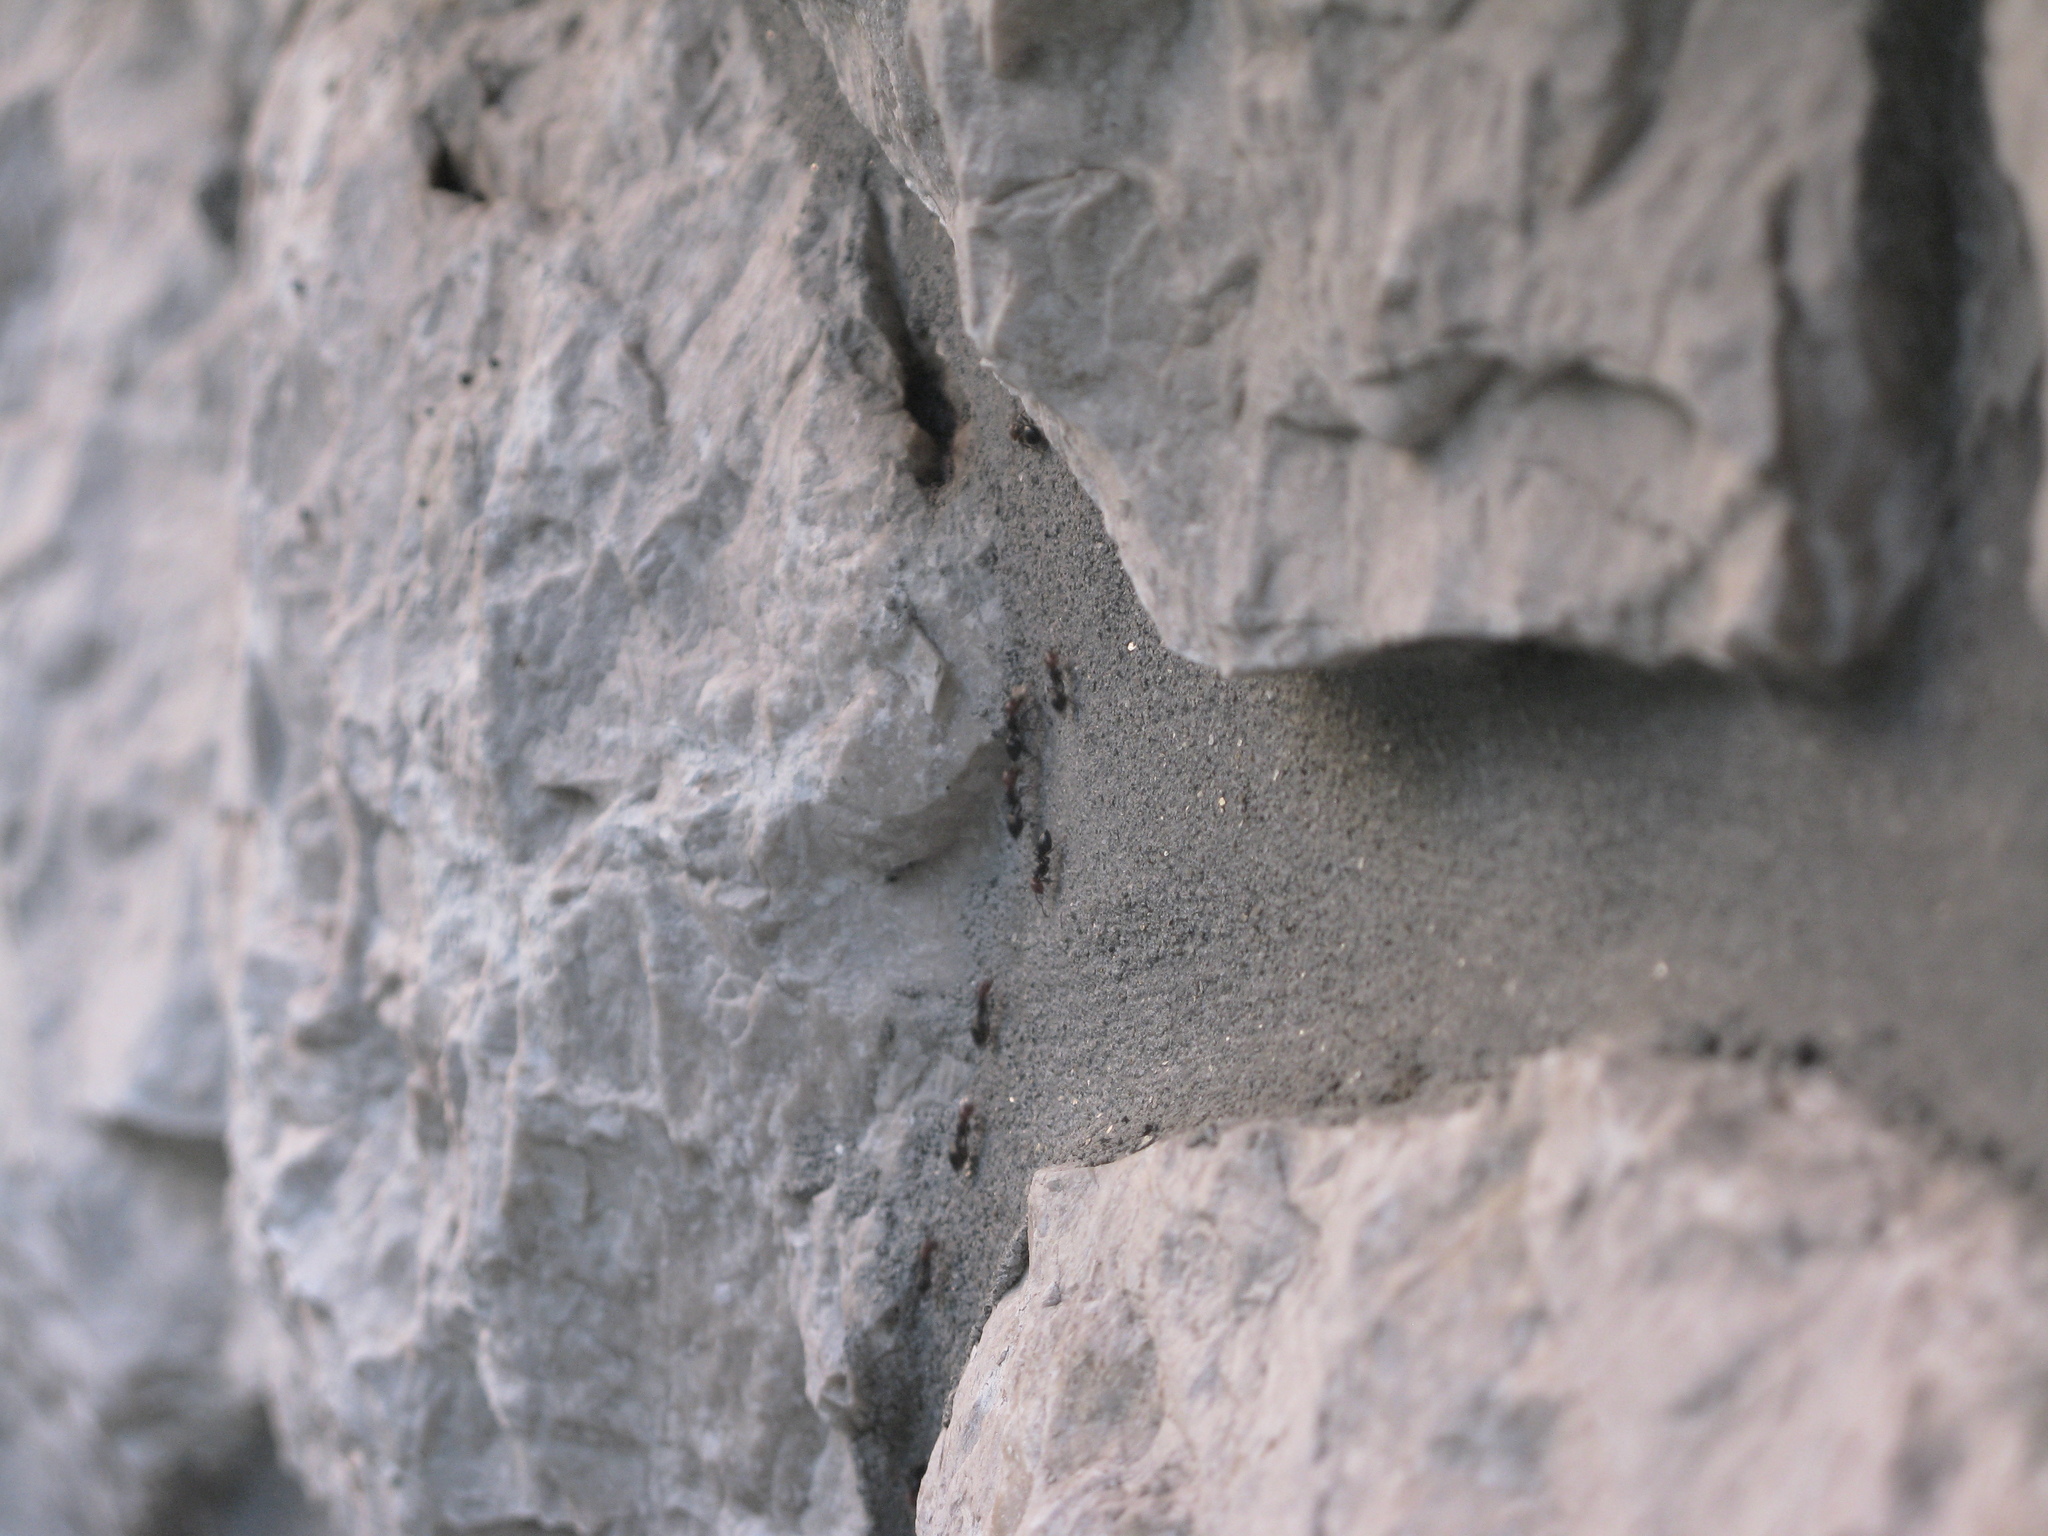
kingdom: Animalia
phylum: Arthropoda
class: Insecta
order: Hymenoptera
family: Formicidae
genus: Crematogaster
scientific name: Crematogaster scutellaris
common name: Fourmi du liège
